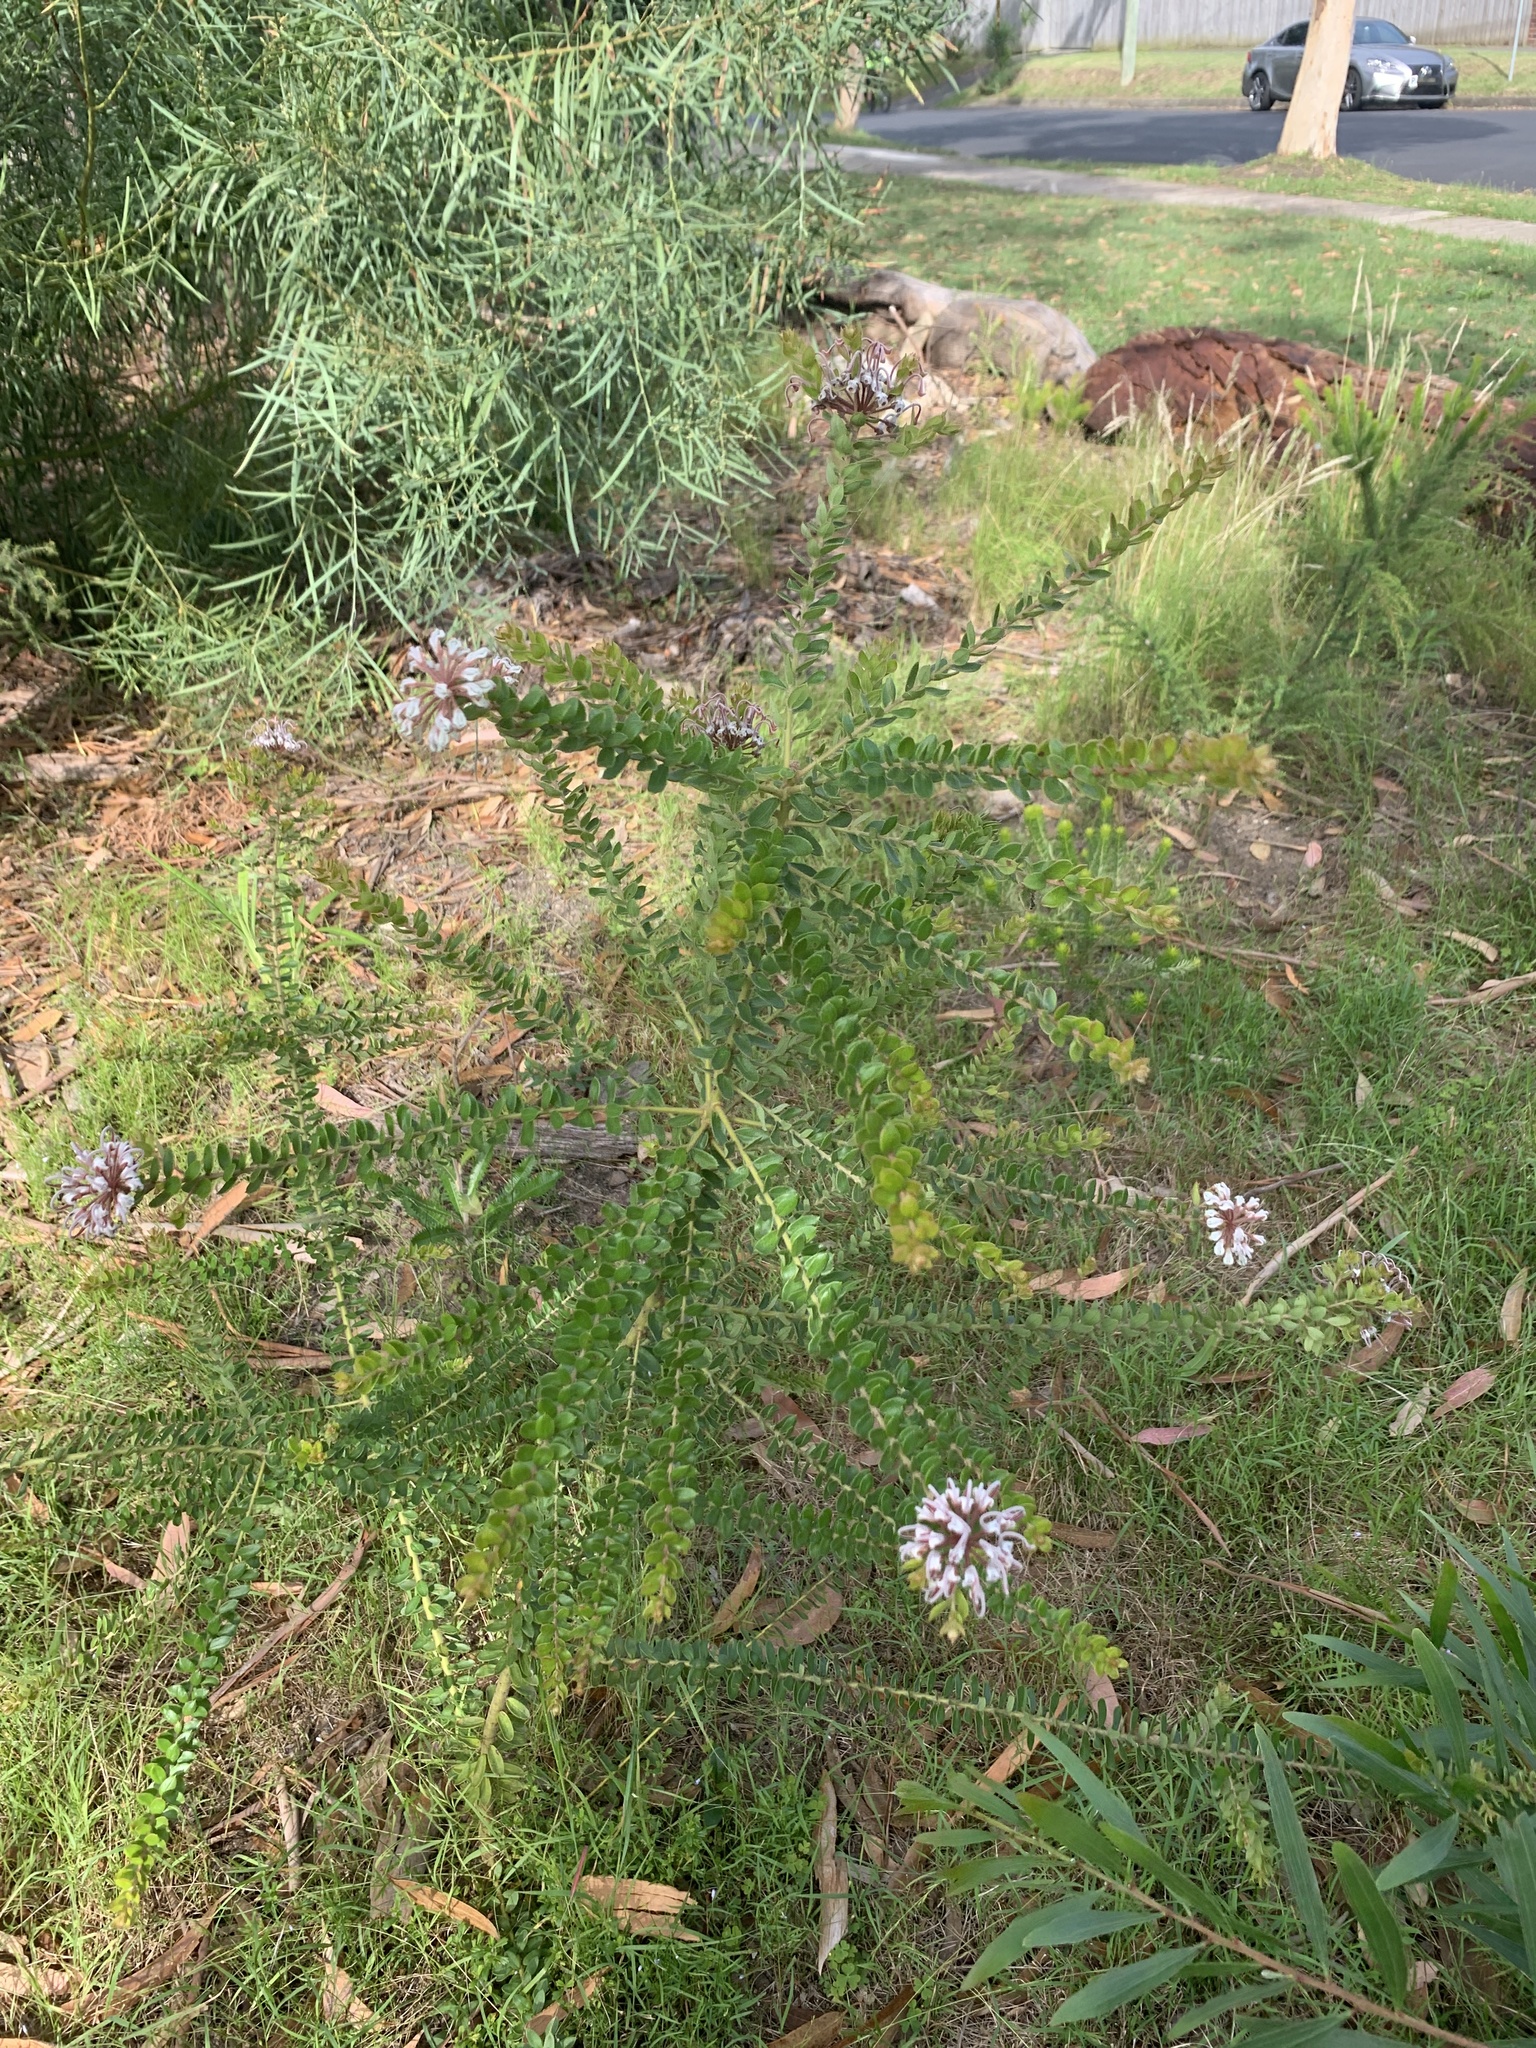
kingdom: Plantae
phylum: Tracheophyta
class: Magnoliopsida
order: Proteales
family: Proteaceae
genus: Grevillea
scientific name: Grevillea buxifolia
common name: Grey spiderflower
